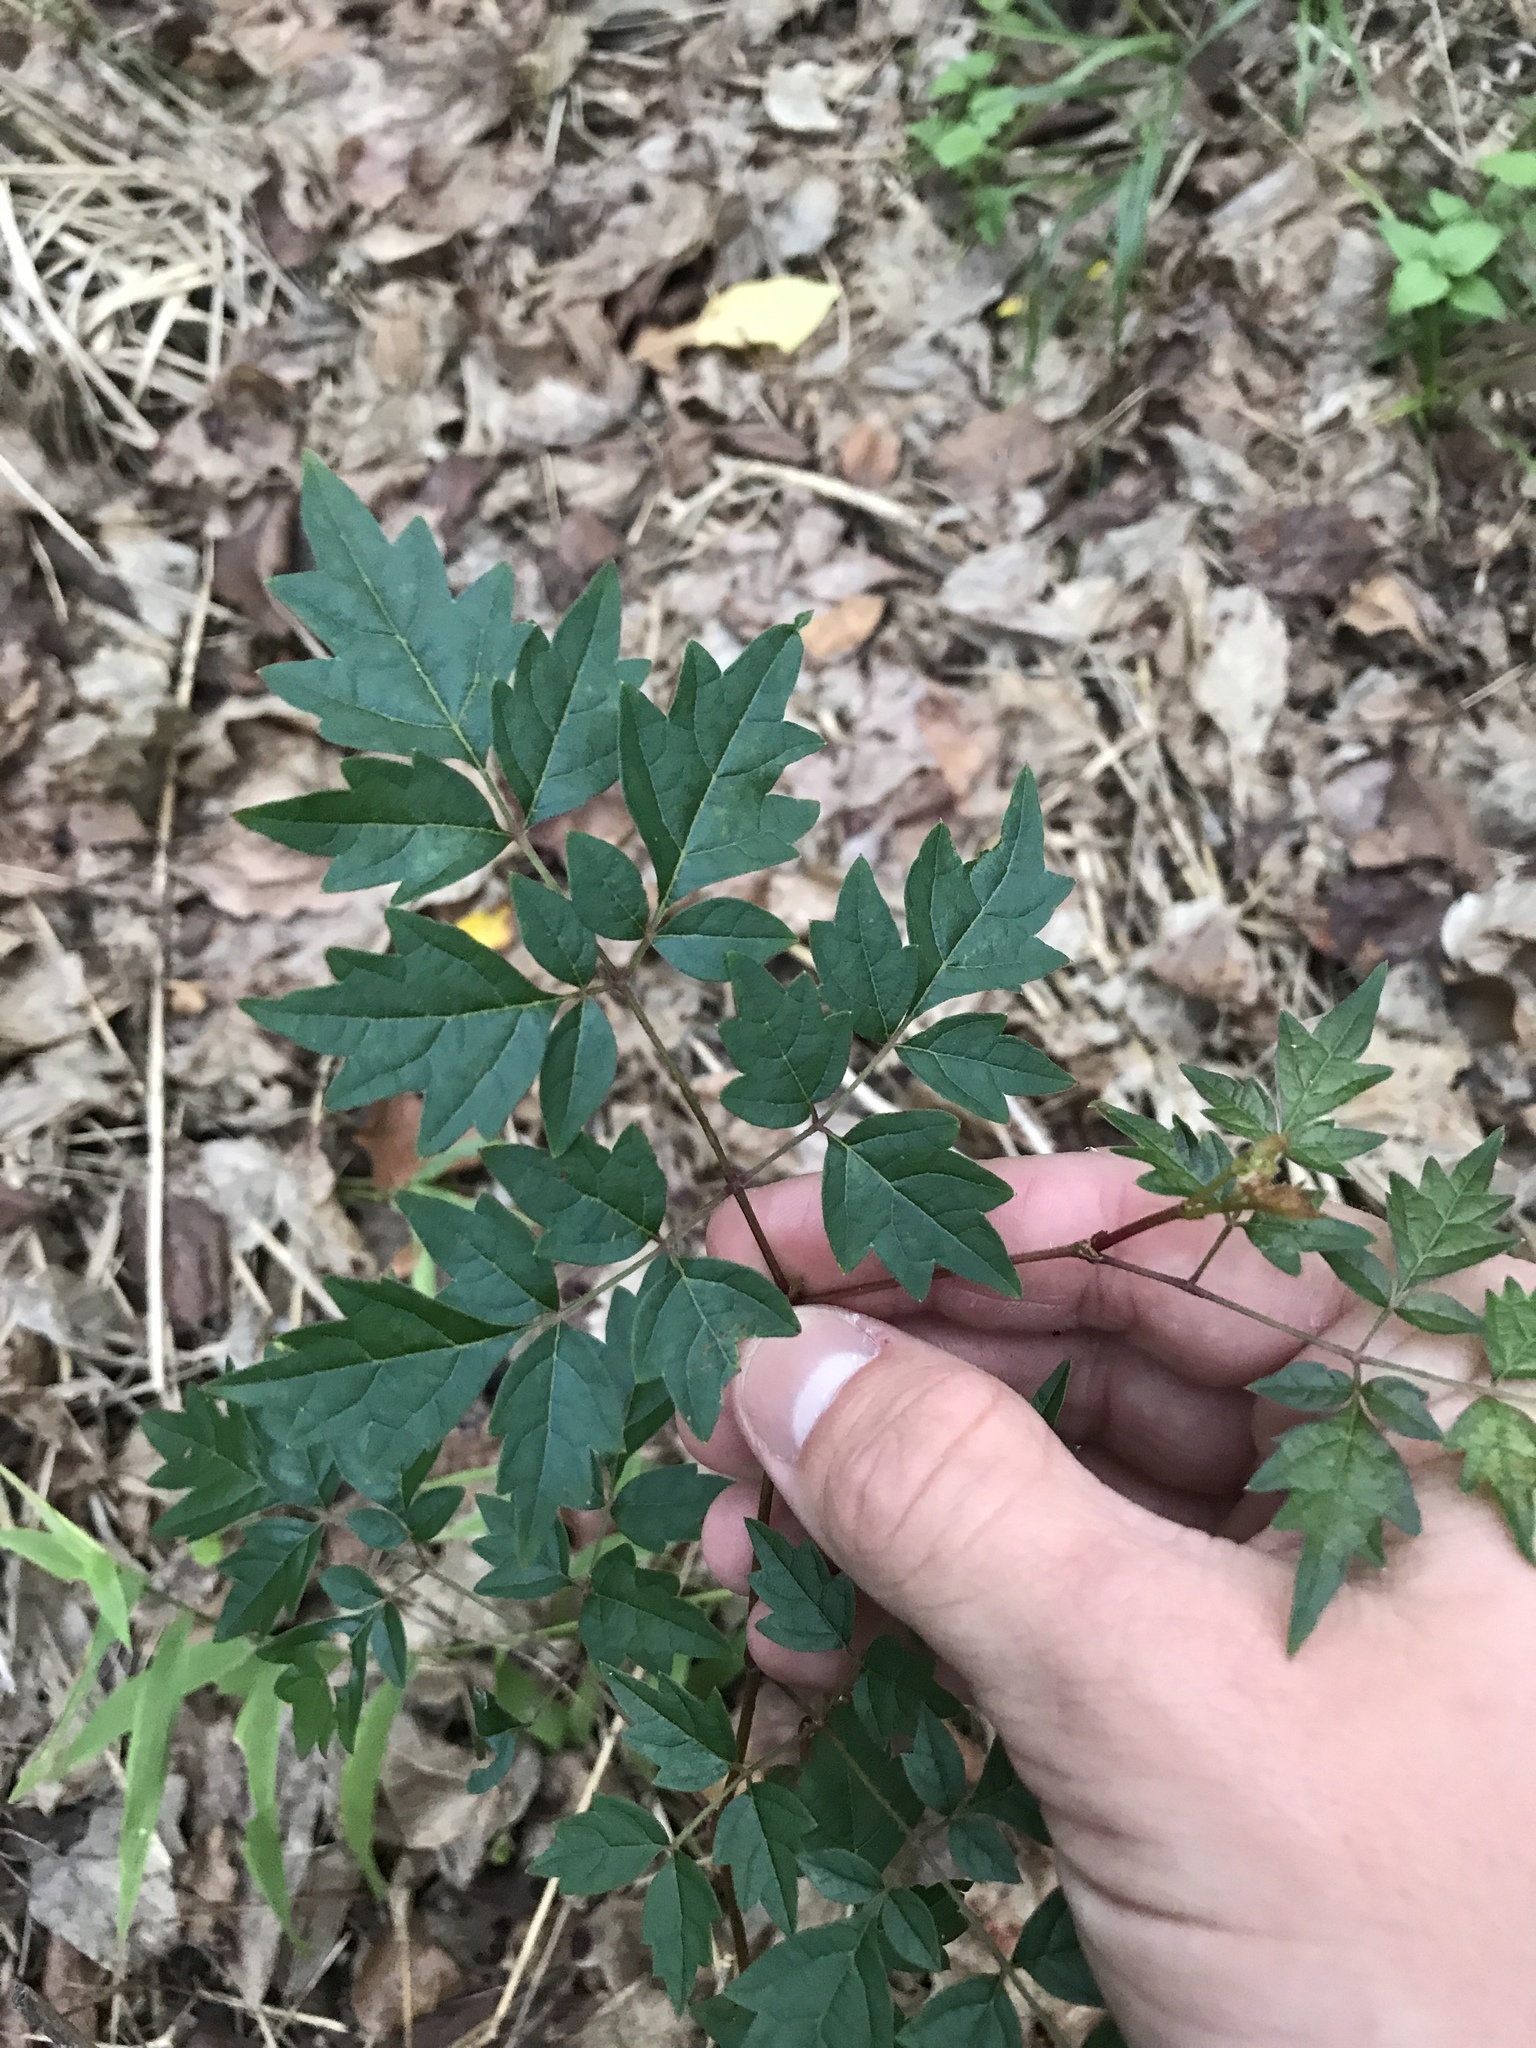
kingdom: Plantae
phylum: Tracheophyta
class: Magnoliopsida
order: Vitales
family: Vitaceae
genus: Nekemias
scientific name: Nekemias arborea
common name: Peppervine
